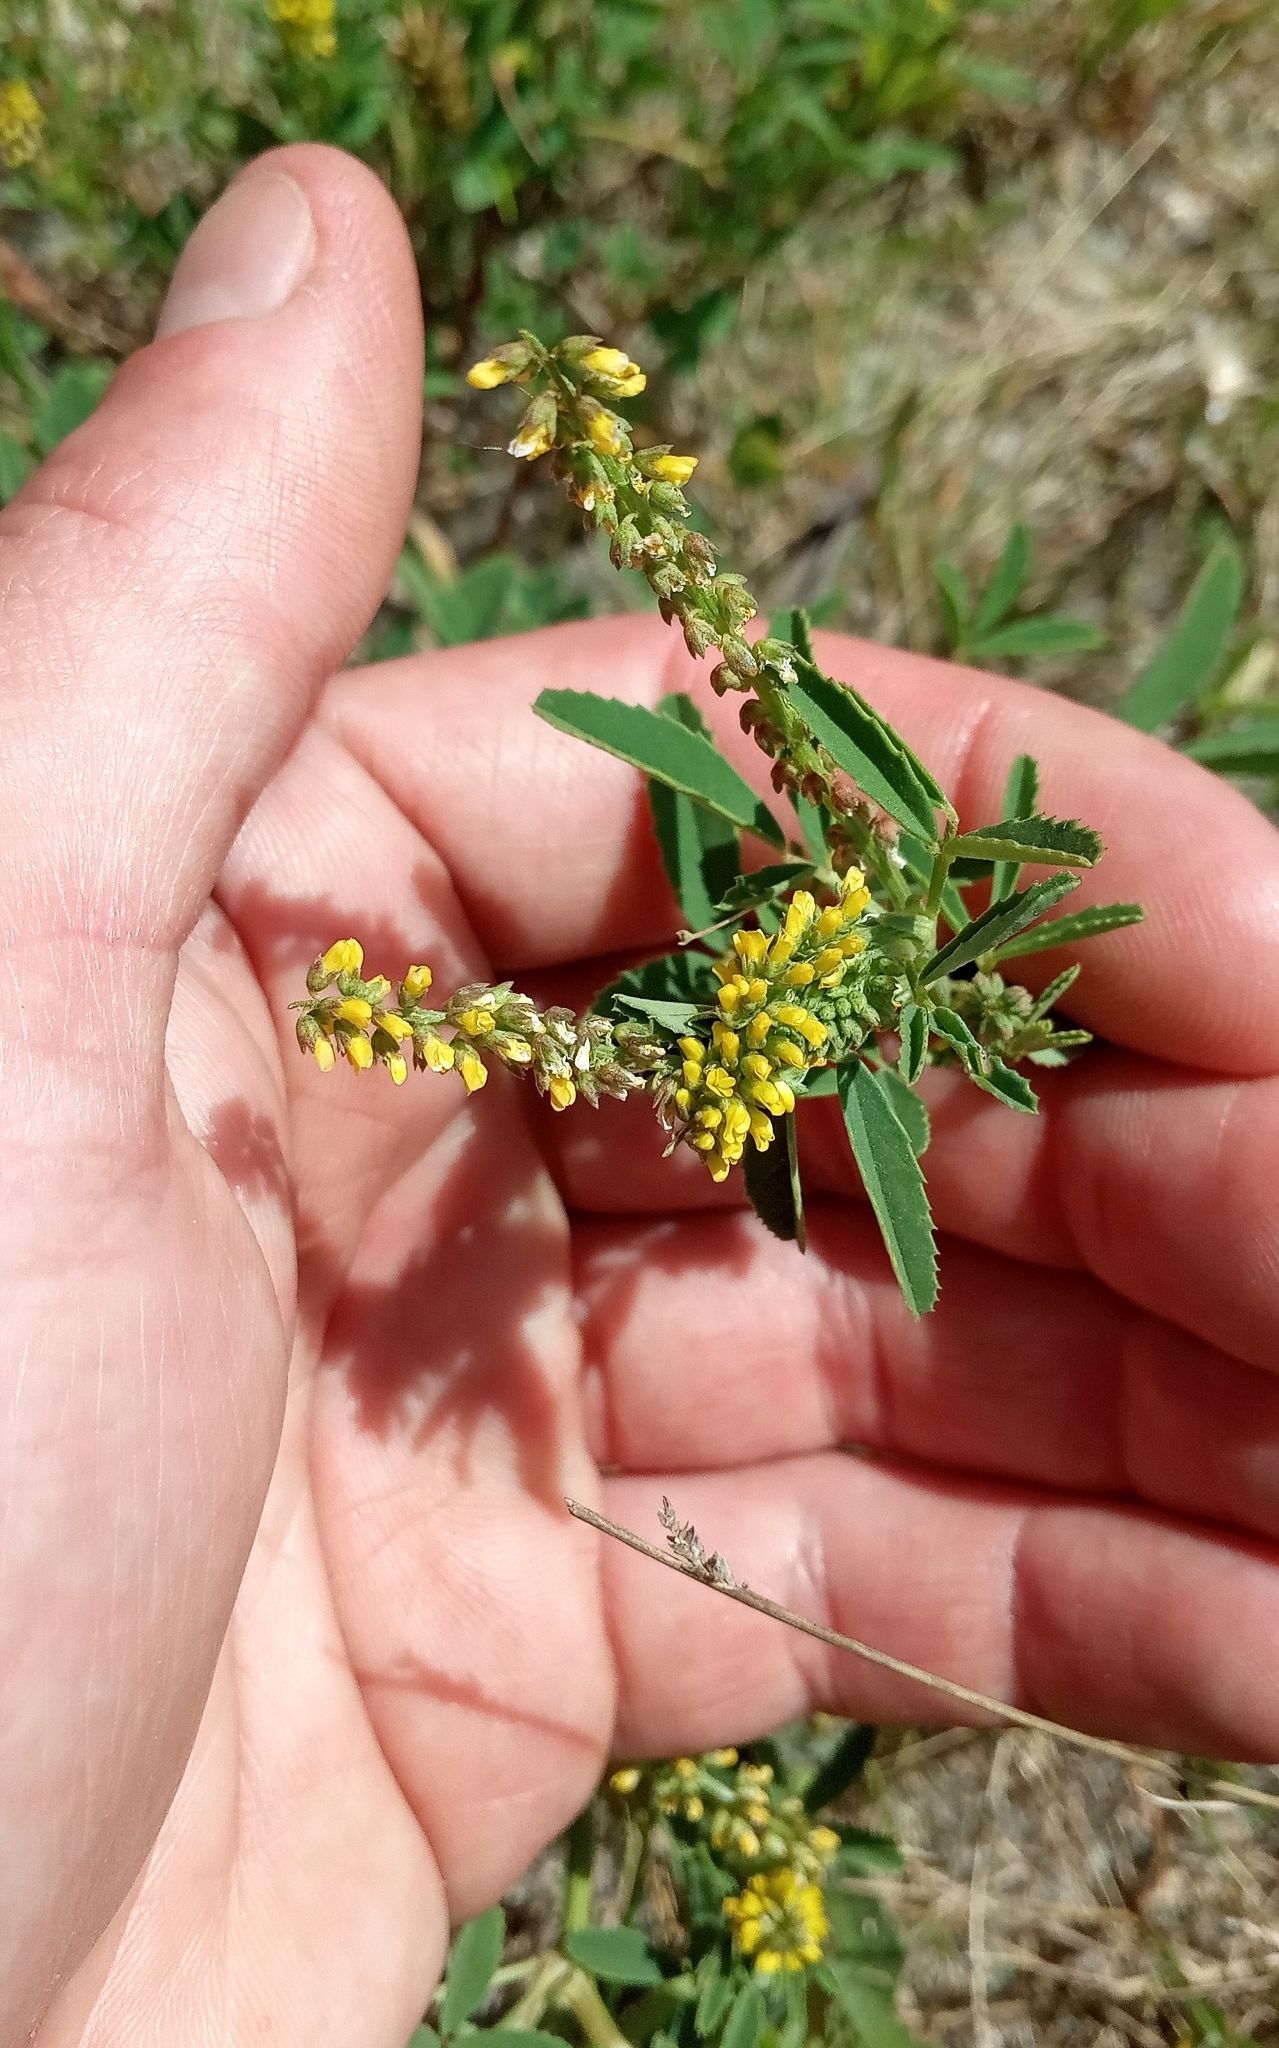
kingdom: Plantae
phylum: Tracheophyta
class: Magnoliopsida
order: Fabales
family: Fabaceae
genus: Melilotus
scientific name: Melilotus indicus
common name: Small melilot
